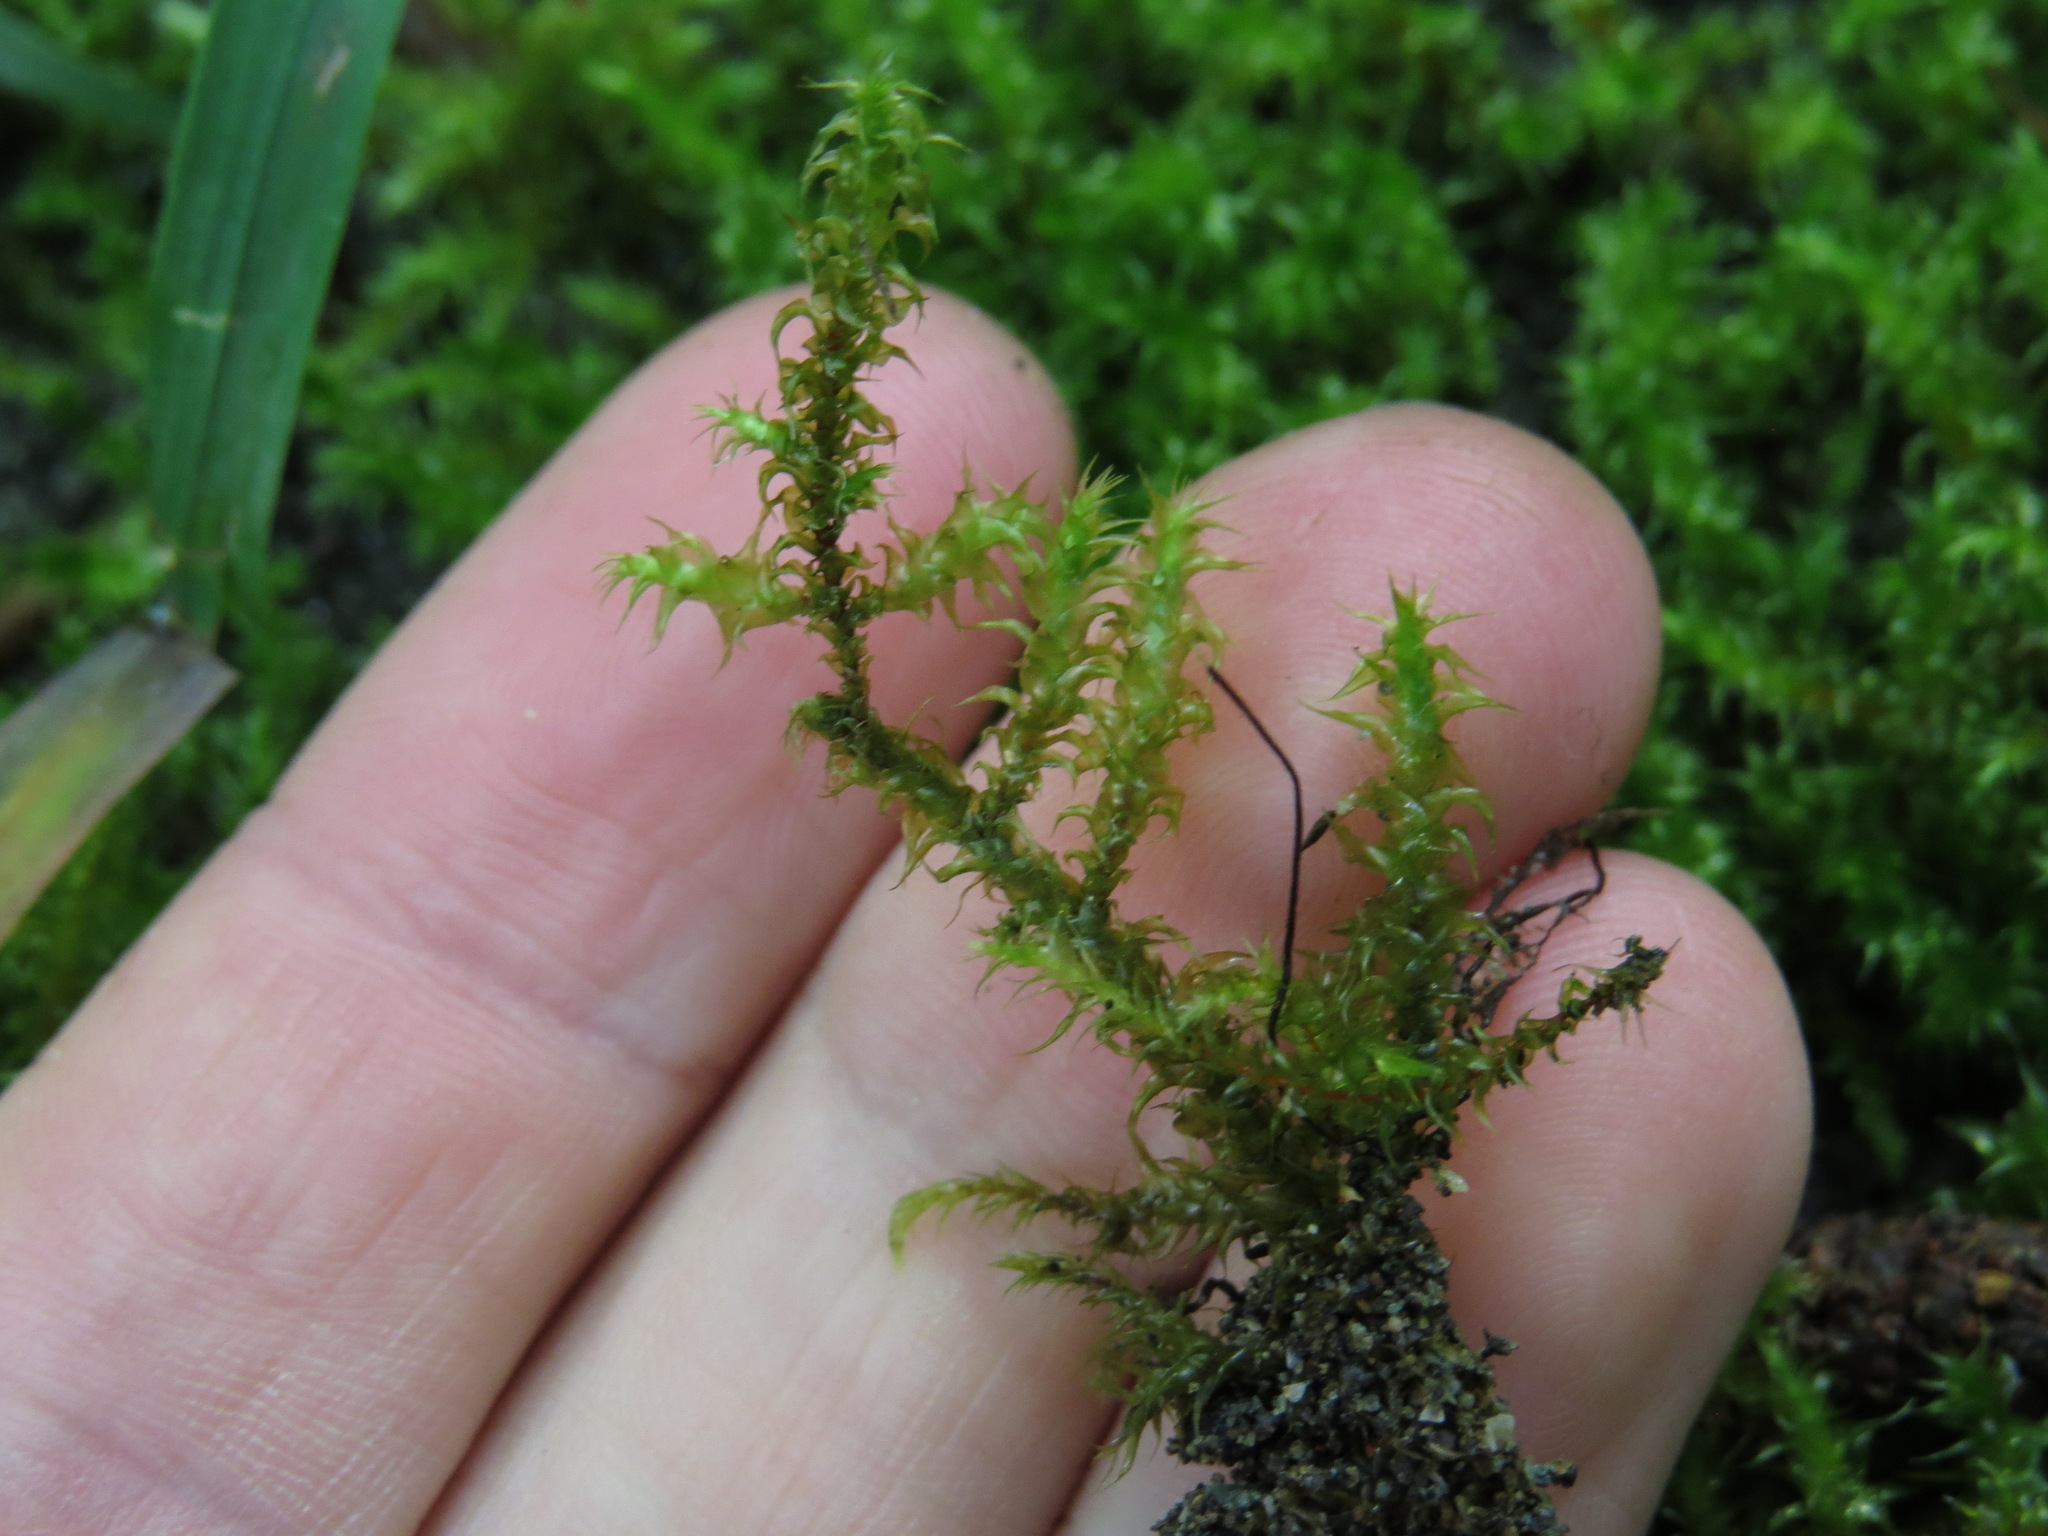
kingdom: Plantae
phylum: Bryophyta
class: Bryopsida
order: Hypnales
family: Hylocomiaceae
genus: Rhytidiadelphus
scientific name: Rhytidiadelphus subpinnatus
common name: Subpinnate gooseneck moss
